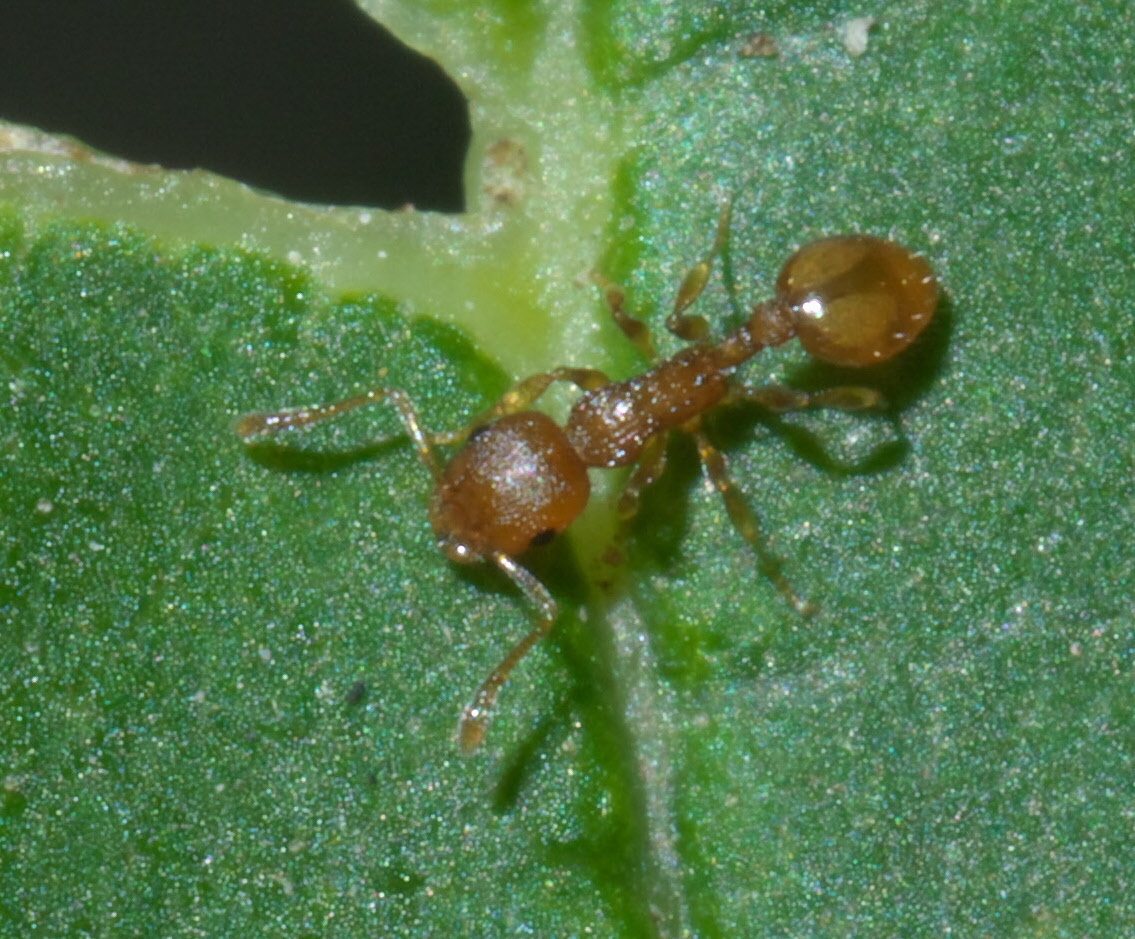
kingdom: Animalia
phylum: Arthropoda
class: Insecta
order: Hymenoptera
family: Formicidae
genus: Temnothorax
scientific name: Temnothorax curvispinosus
